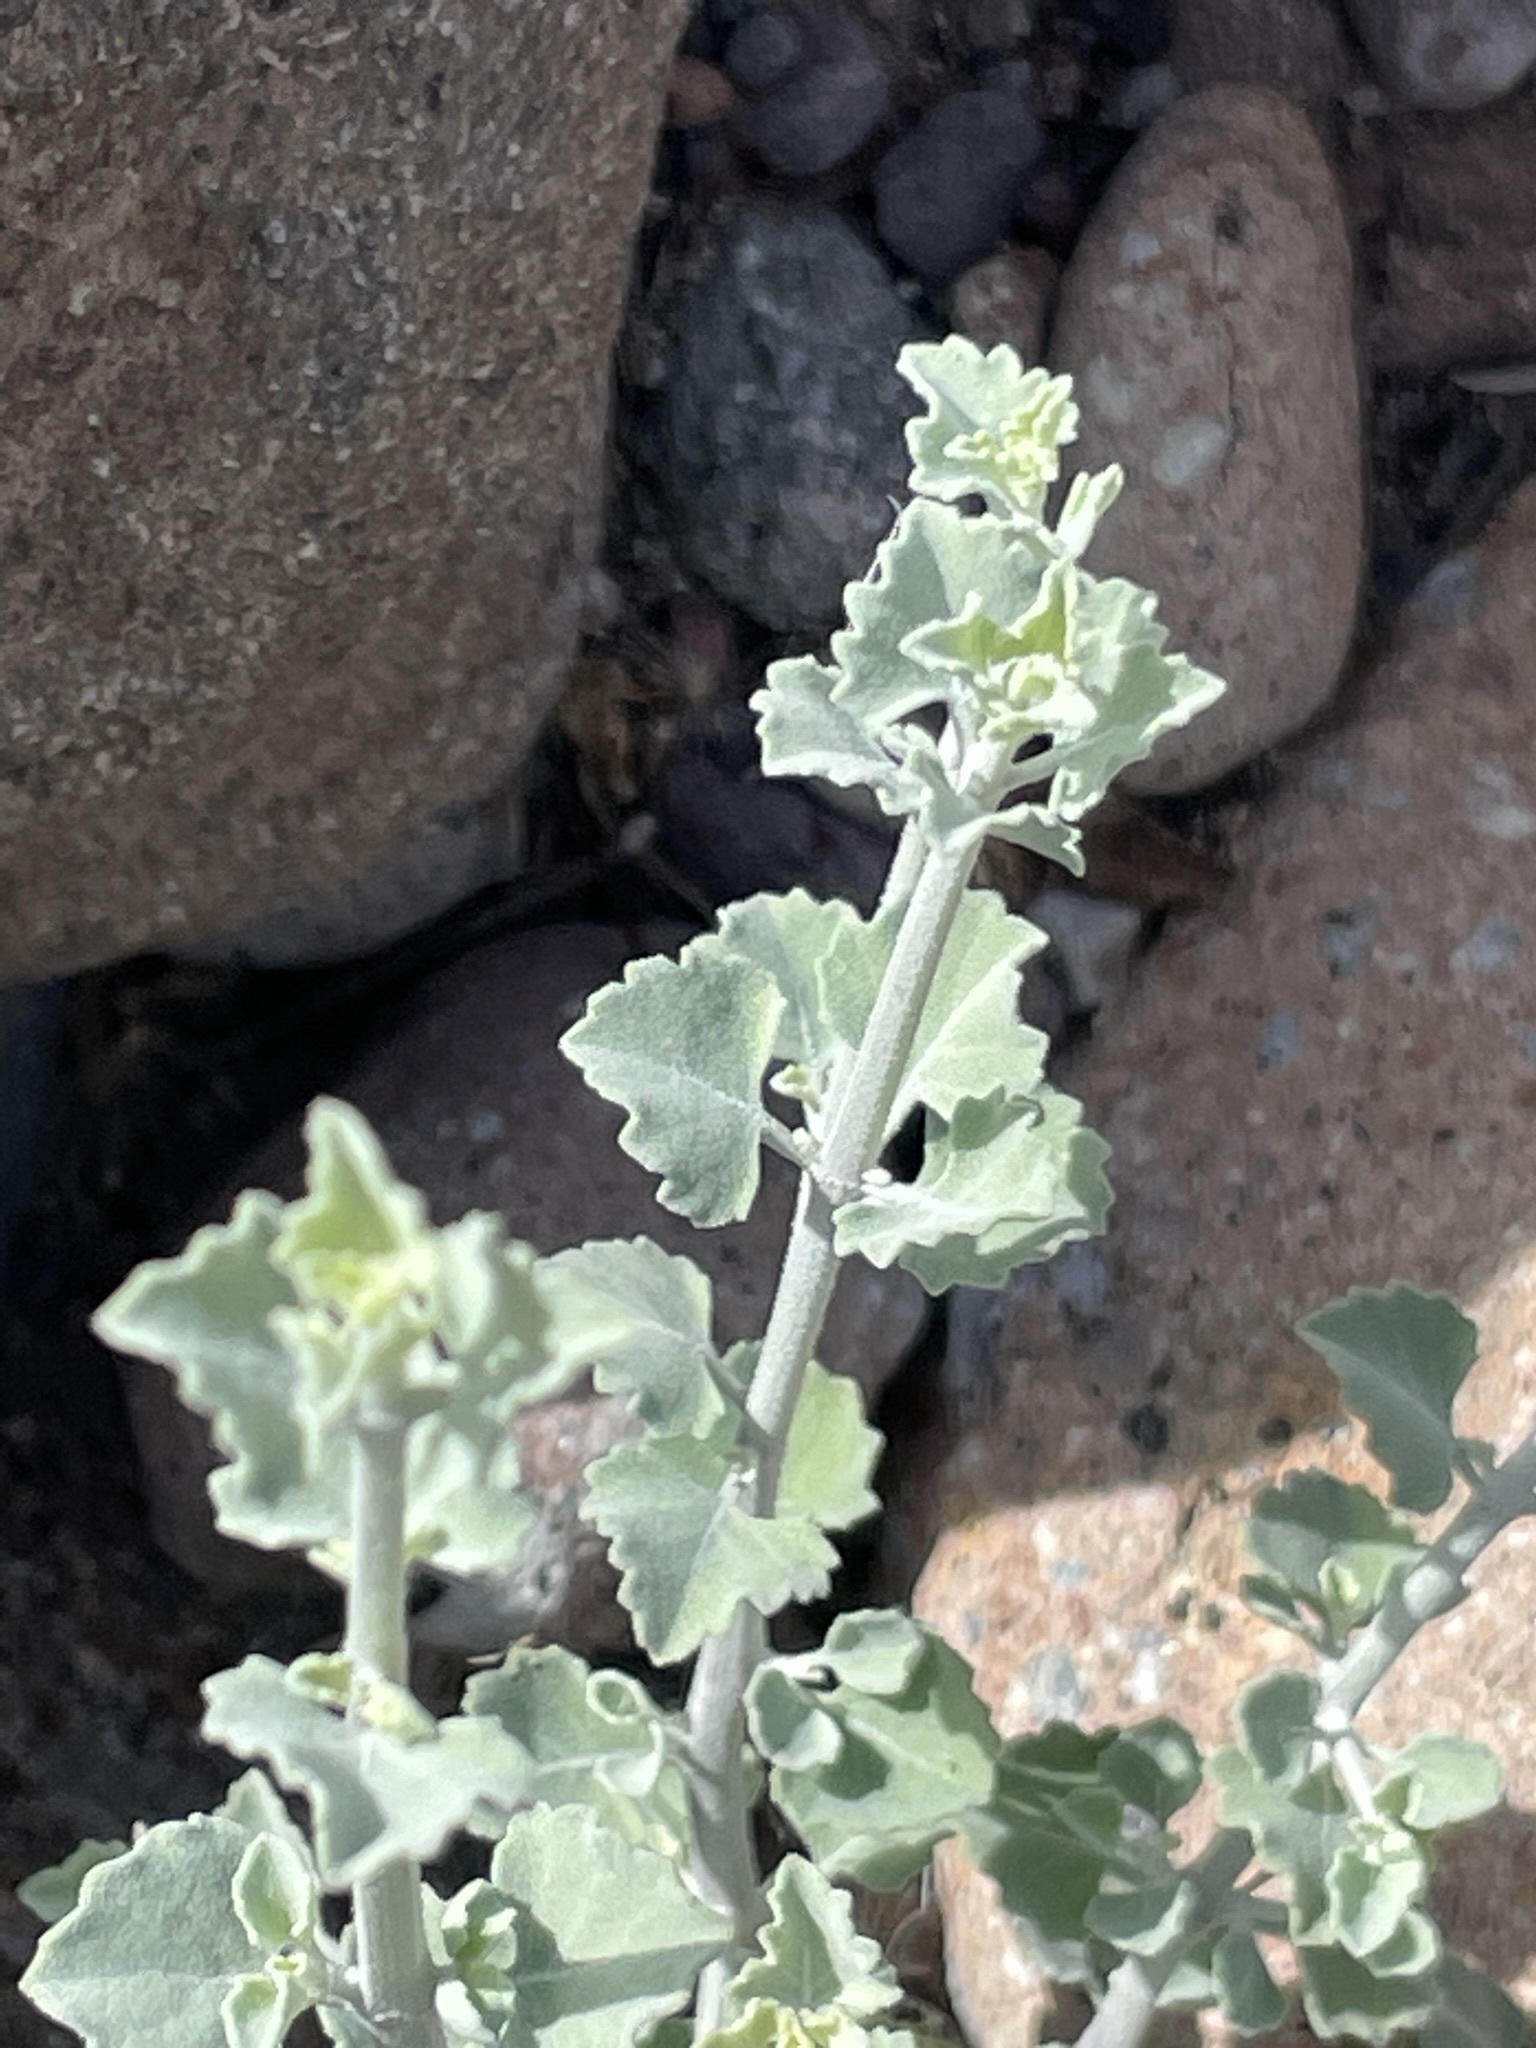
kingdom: Plantae
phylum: Tracheophyta
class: Magnoliopsida
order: Lamiales
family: Lamiaceae
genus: Condea
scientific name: Condea anitae
